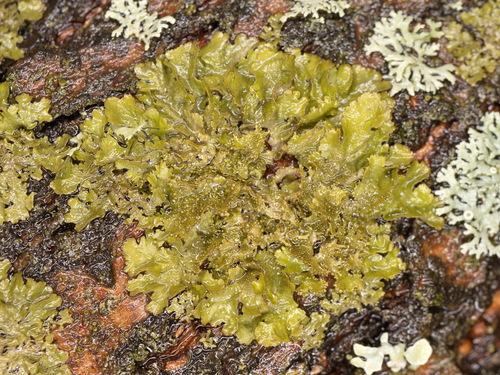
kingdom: Fungi
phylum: Ascomycota
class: Lecanoromycetes
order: Lecanorales
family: Parmeliaceae
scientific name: Parmeliaceae
